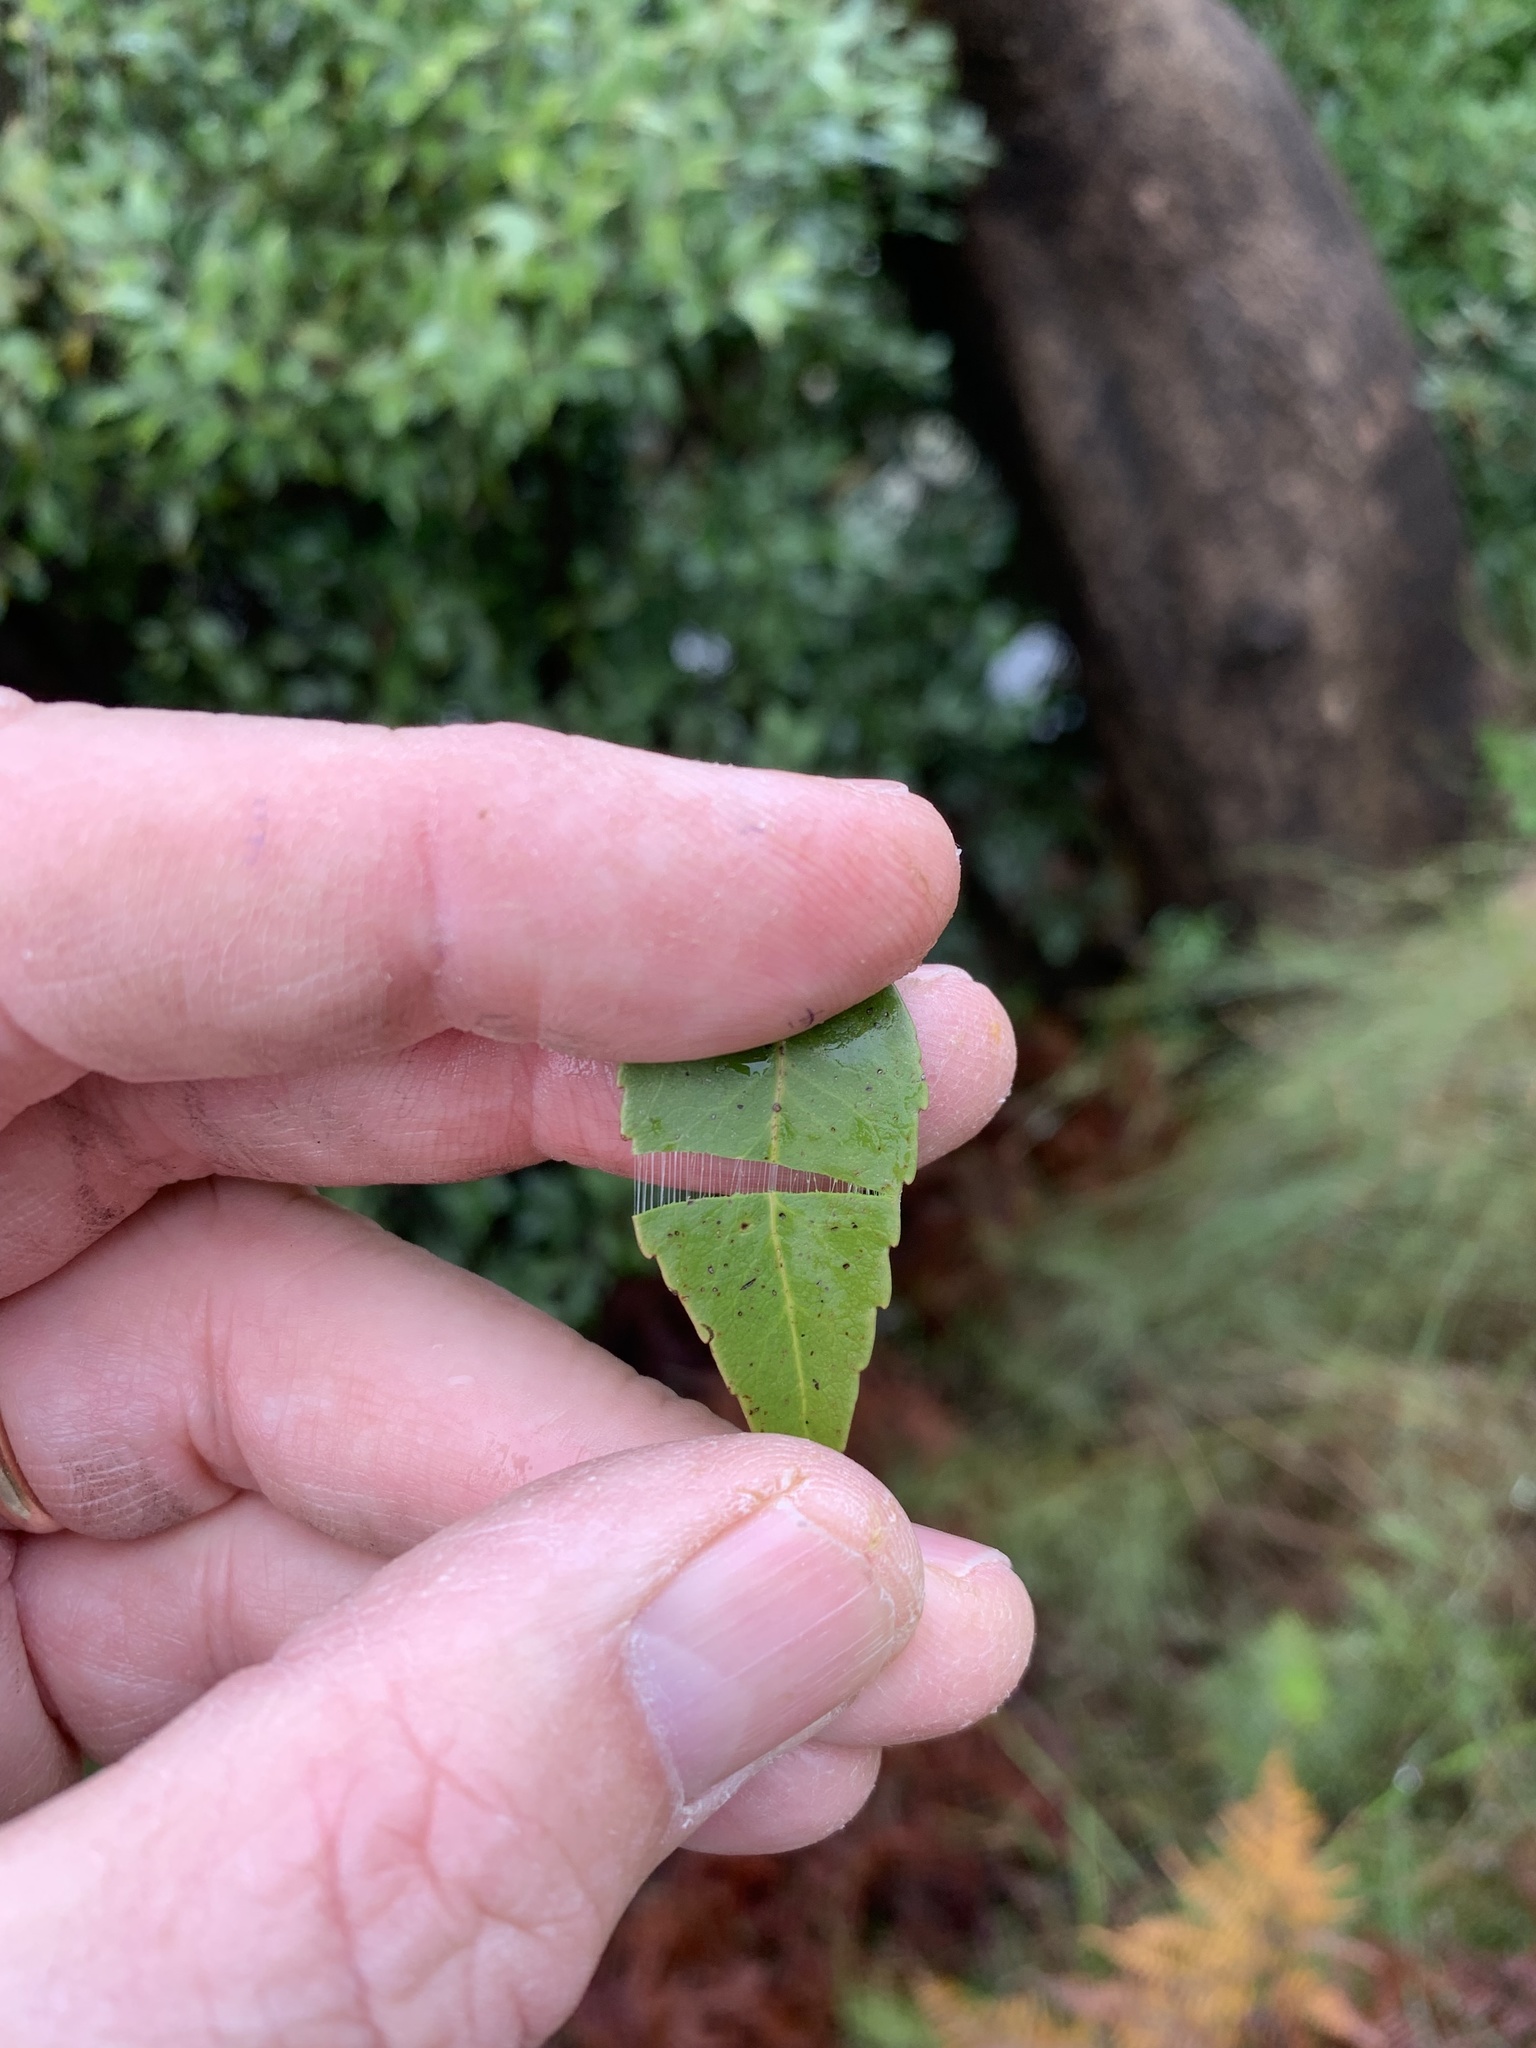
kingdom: Plantae
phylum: Tracheophyta
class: Magnoliopsida
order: Celastrales
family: Celastraceae
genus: Gymnosporia
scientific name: Gymnosporia acuminata
